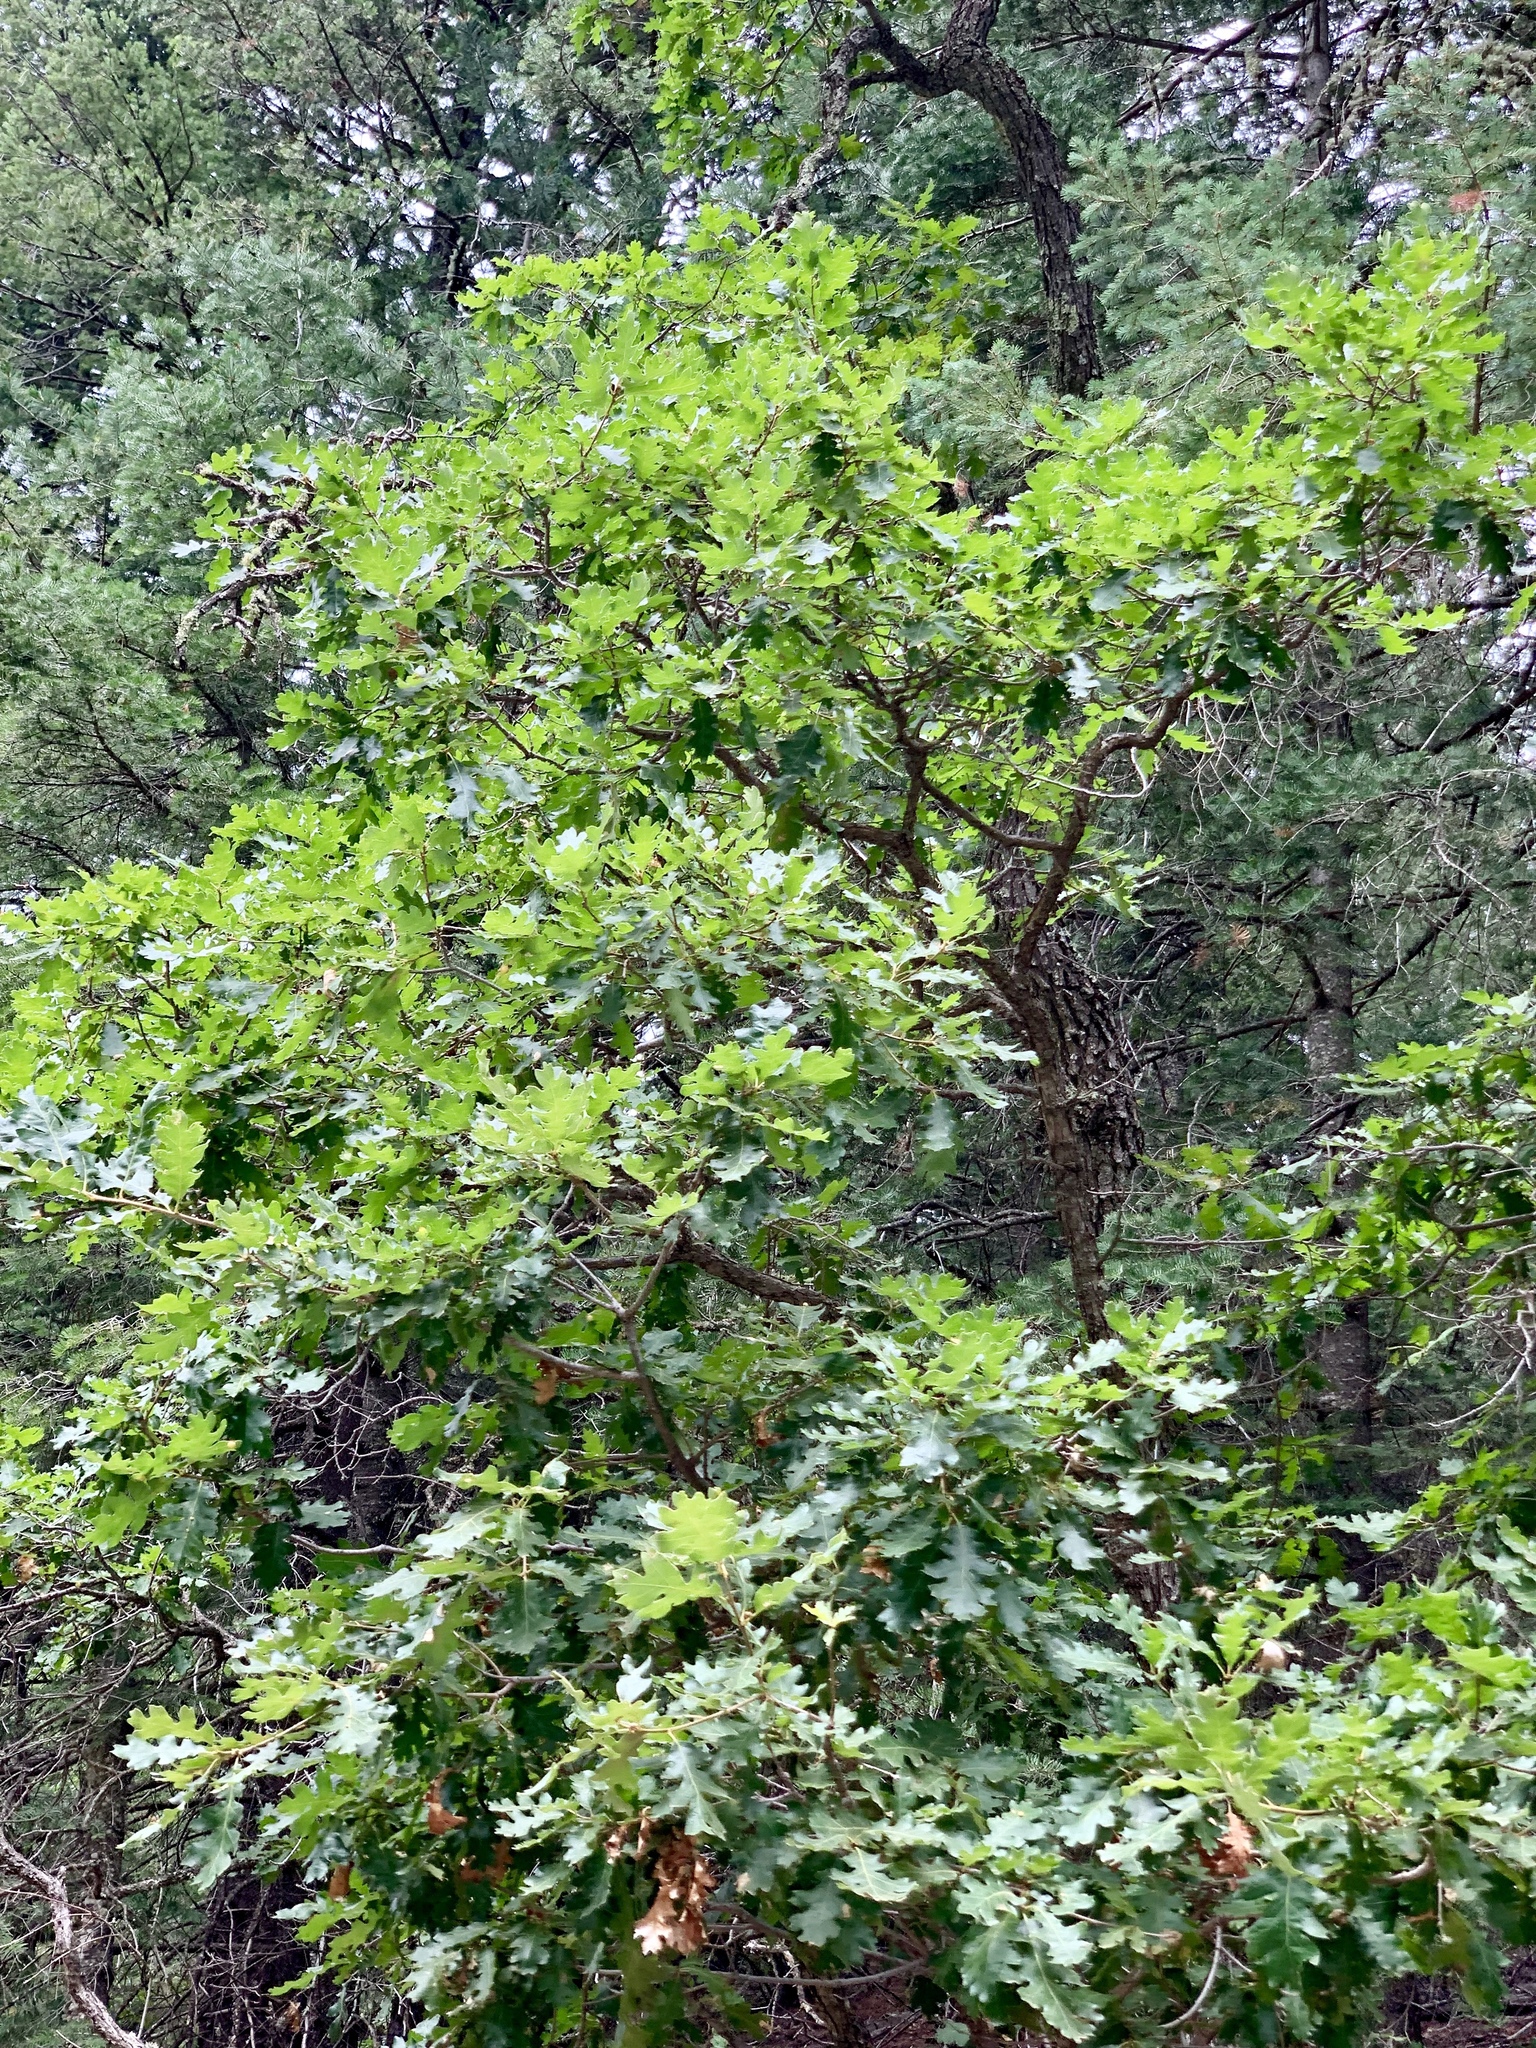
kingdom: Plantae
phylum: Tracheophyta
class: Magnoliopsida
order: Fagales
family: Fagaceae
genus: Quercus
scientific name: Quercus gambelii
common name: Gambel oak
